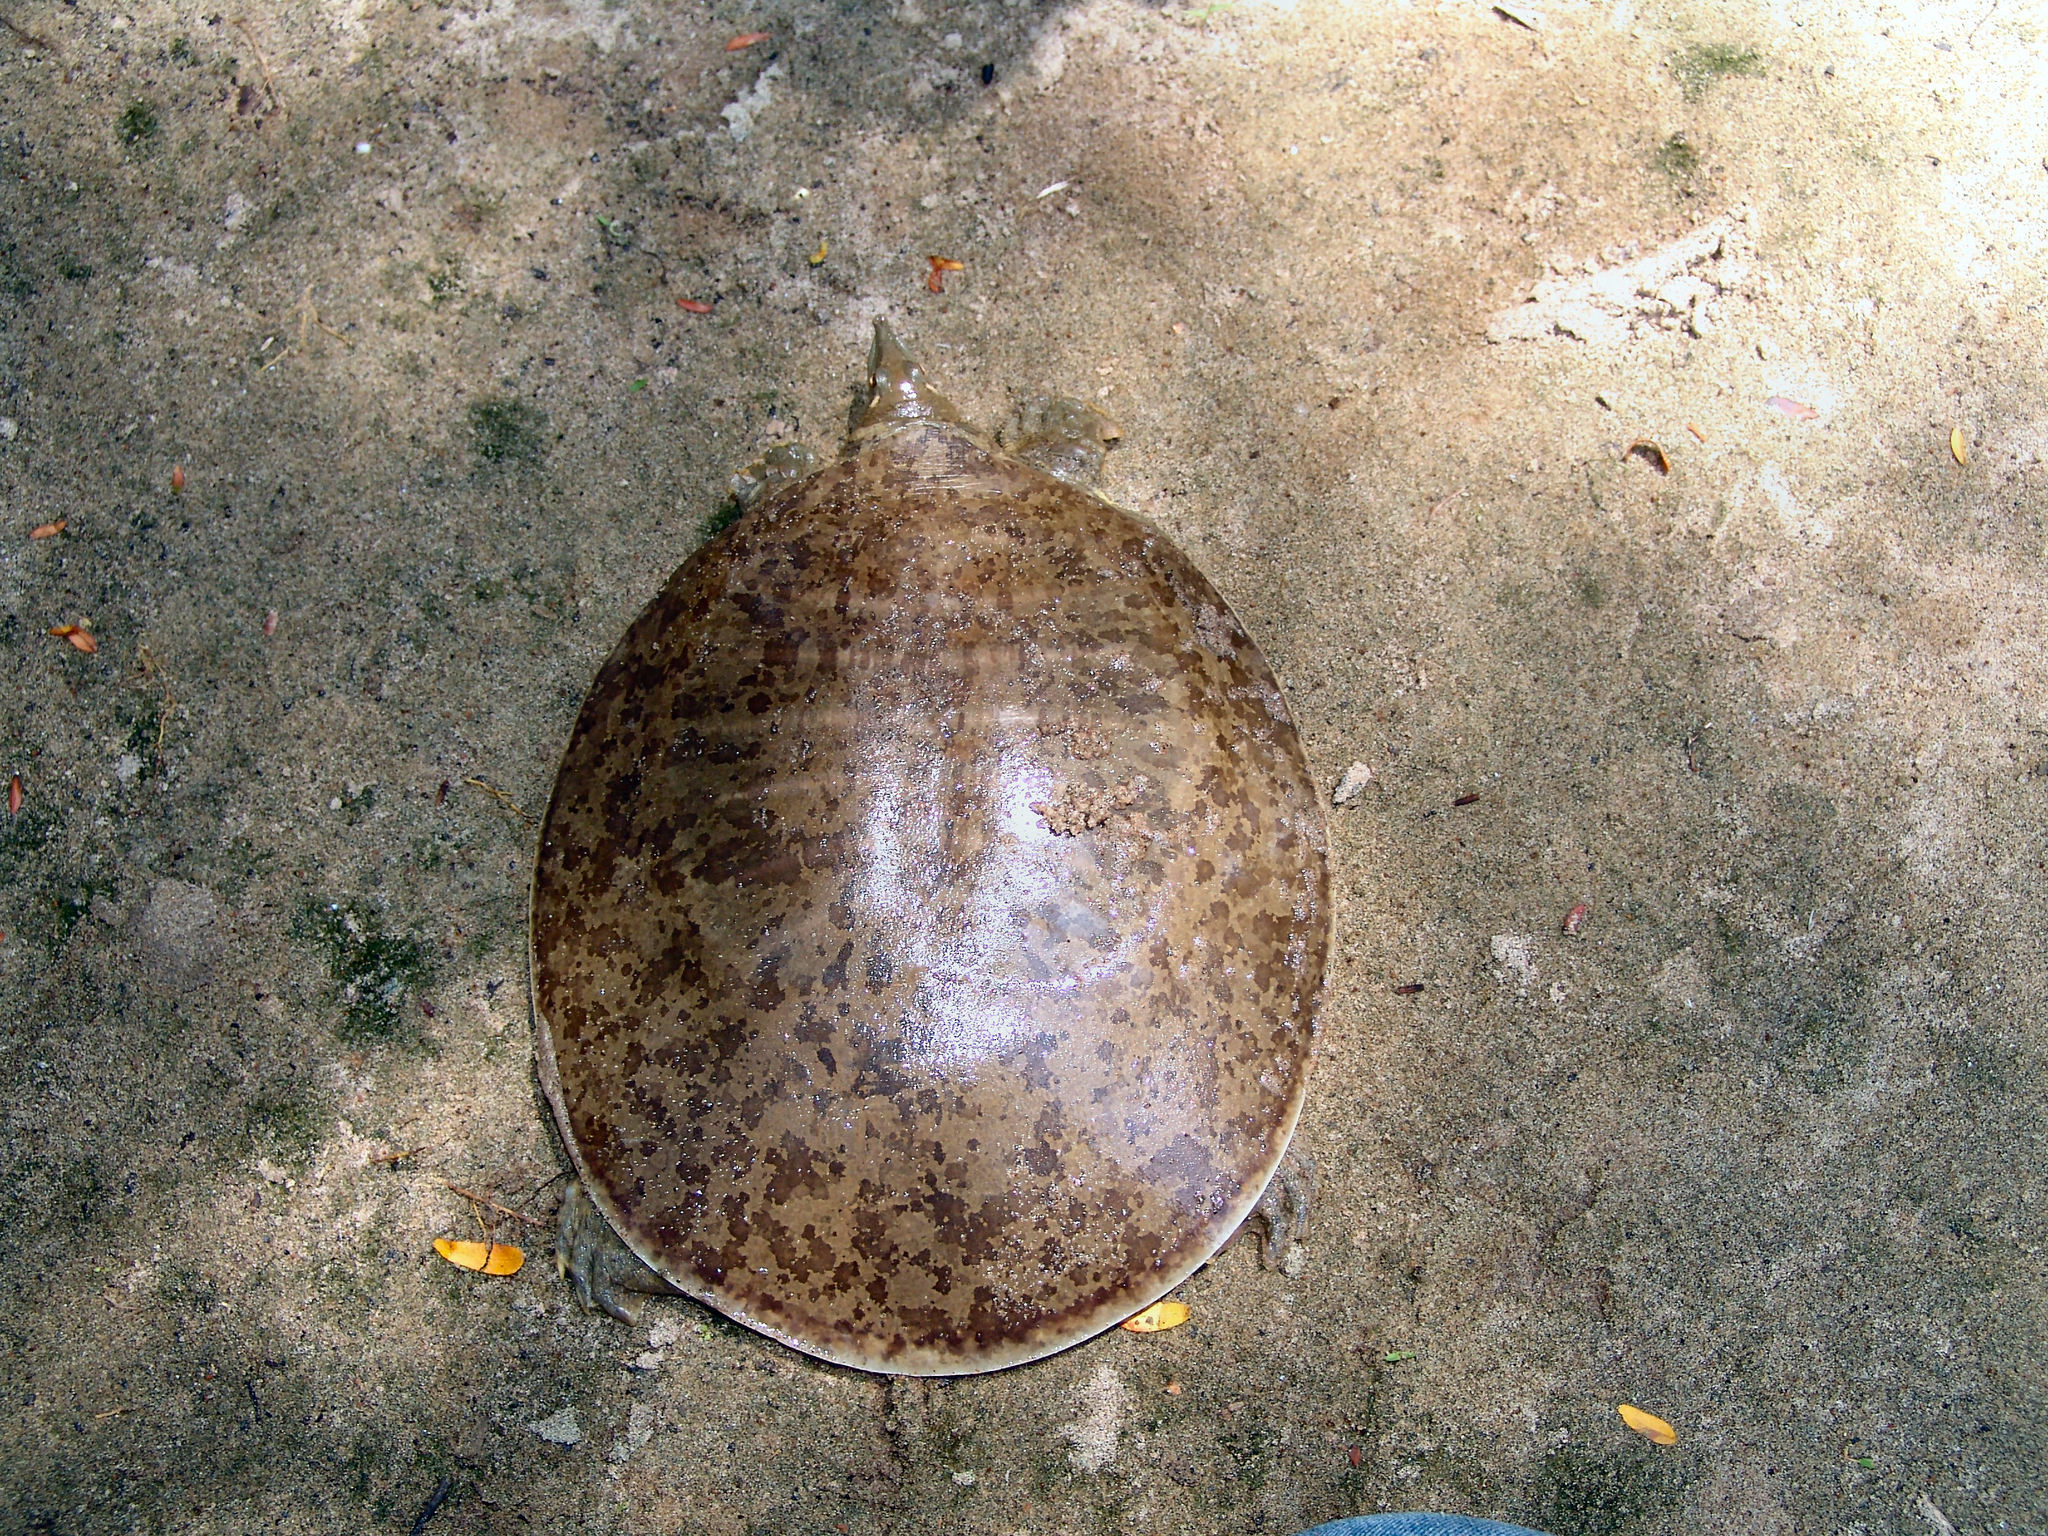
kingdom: Animalia
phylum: Chordata
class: Testudines
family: Trionychidae
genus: Apalone
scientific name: Apalone mutica
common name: Smooth softshell turtle
